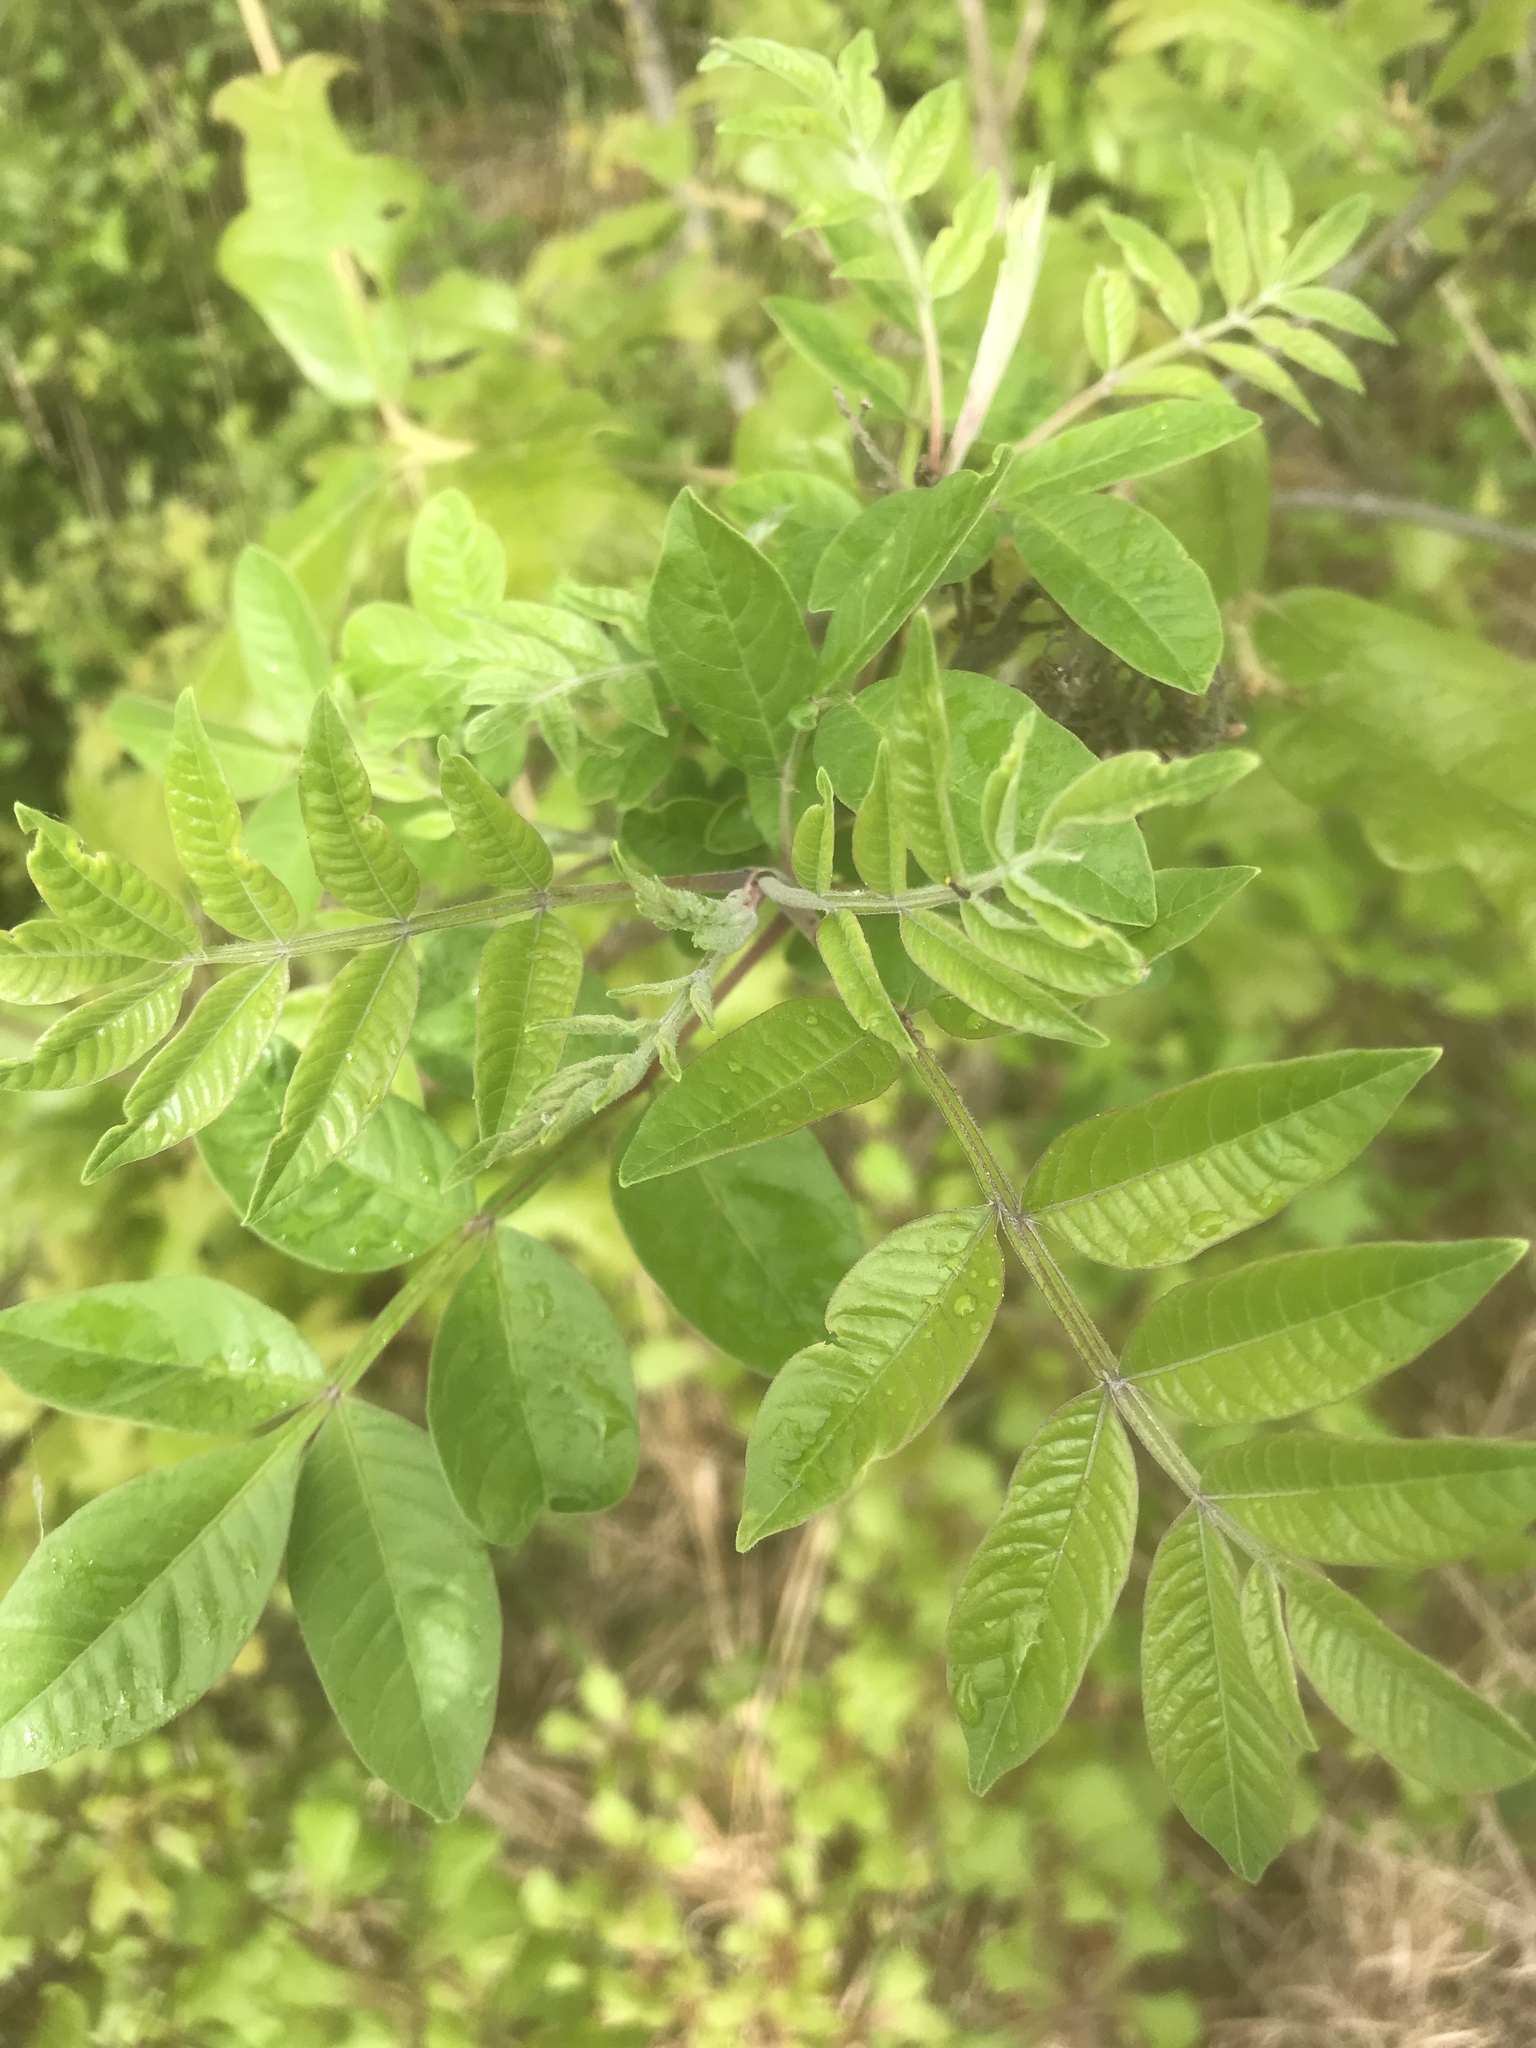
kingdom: Plantae
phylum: Tracheophyta
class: Magnoliopsida
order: Sapindales
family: Anacardiaceae
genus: Rhus
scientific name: Rhus copallina
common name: Shining sumac
